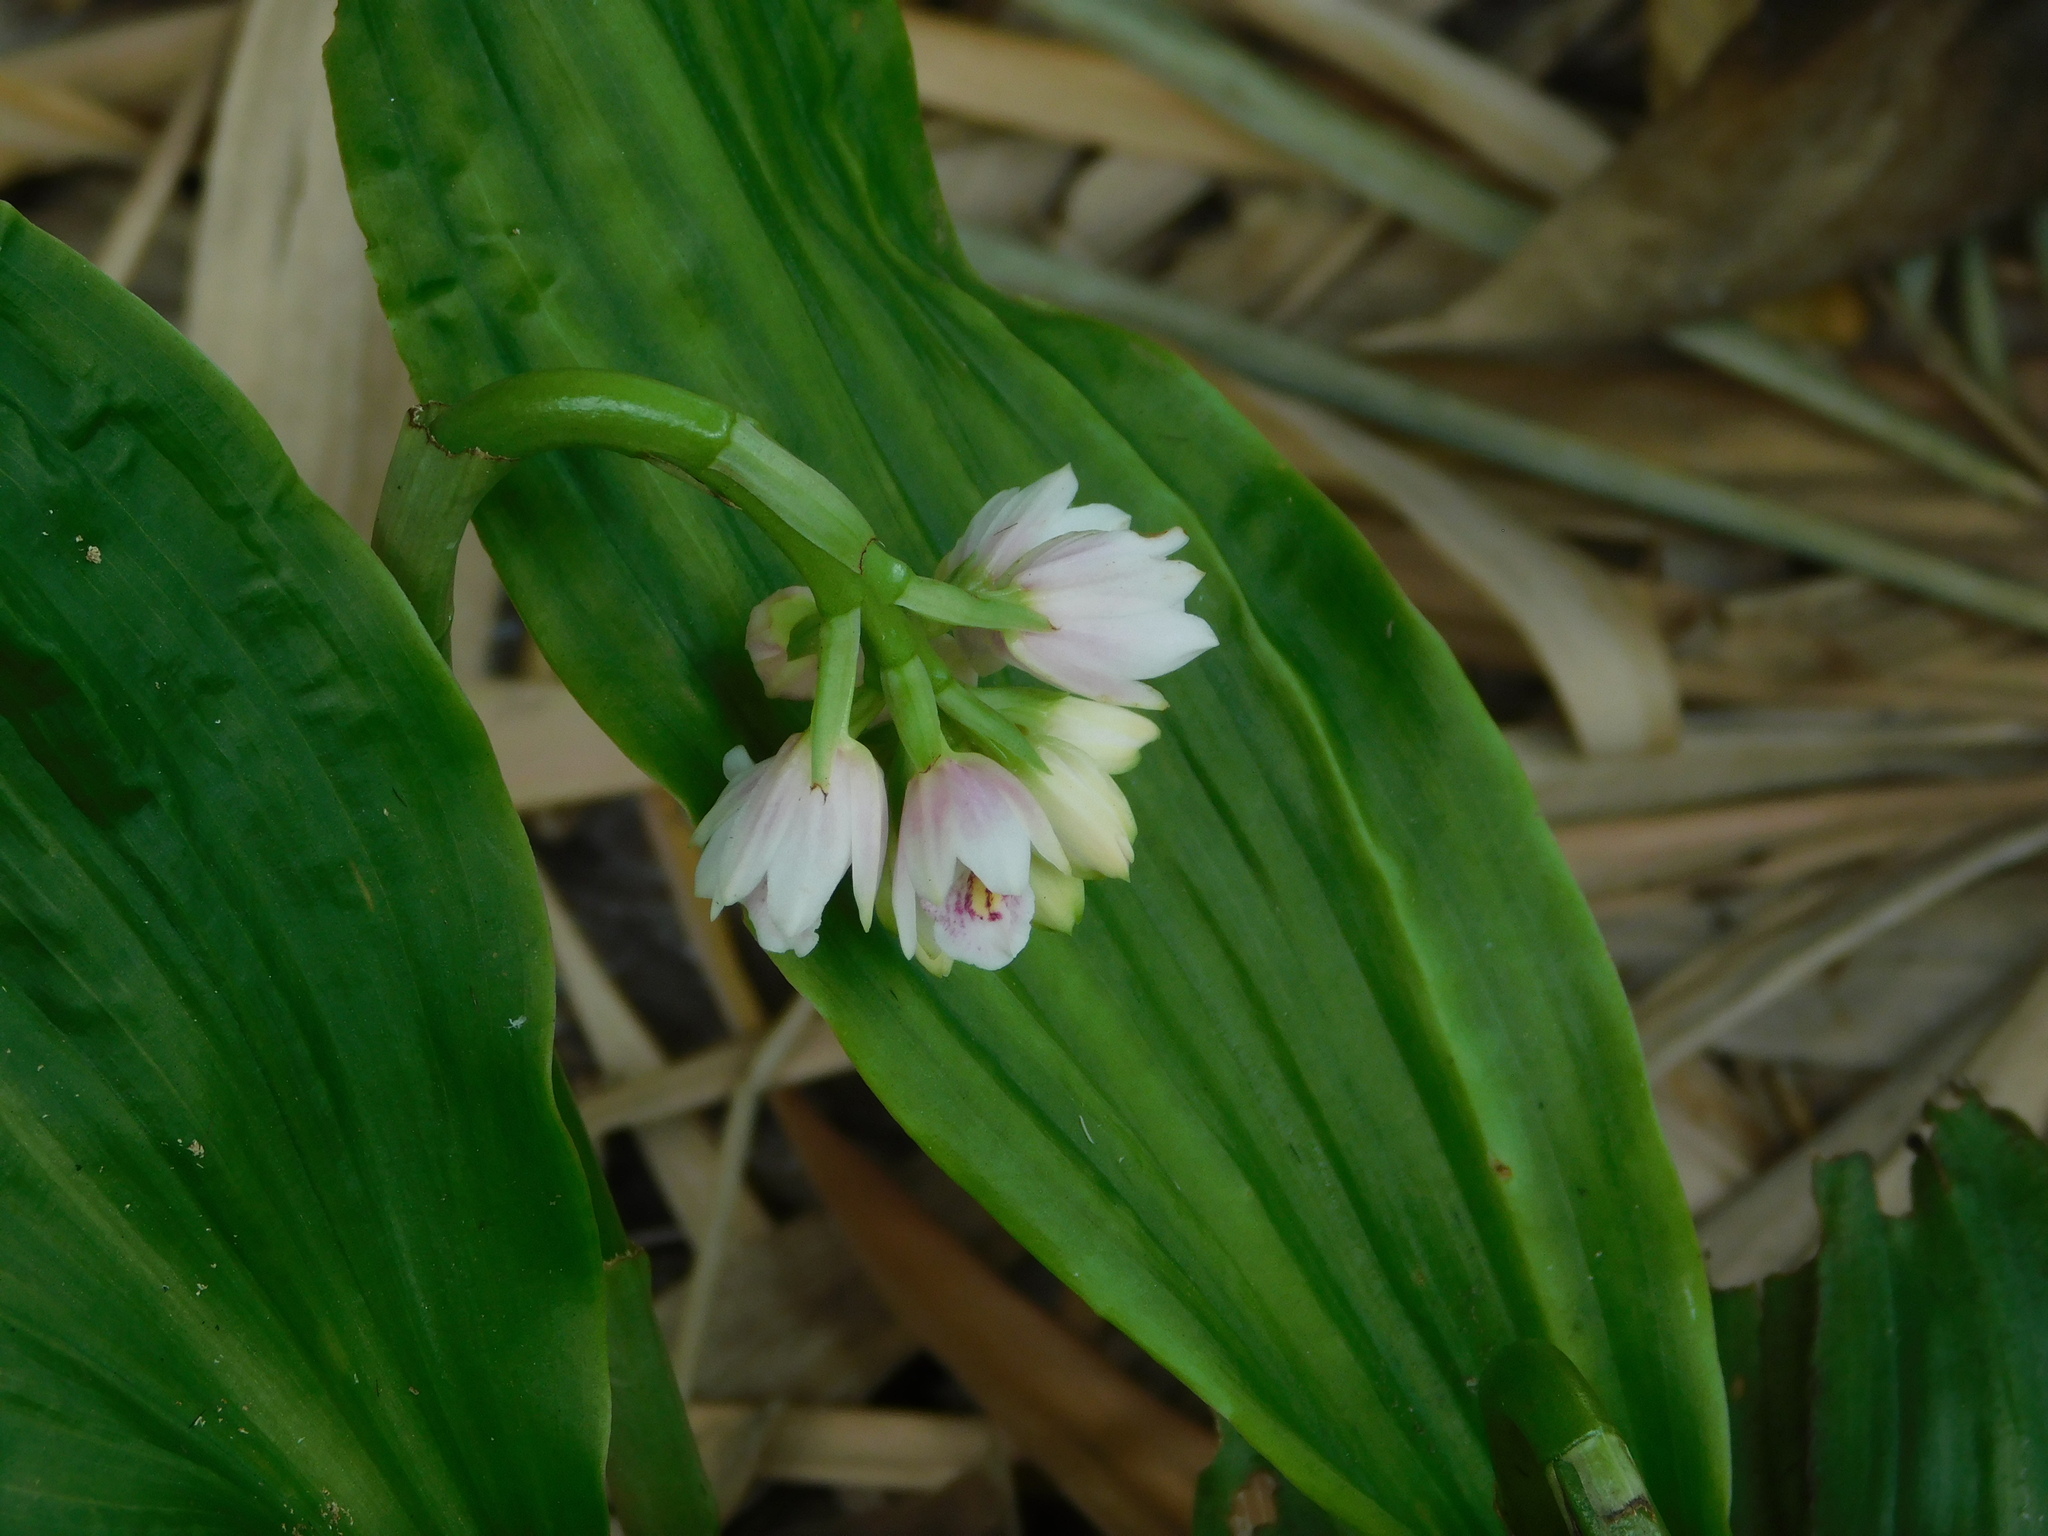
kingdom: Plantae
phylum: Tracheophyta
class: Liliopsida
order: Asparagales
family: Orchidaceae
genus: Eulophia
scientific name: Eulophia cernua
